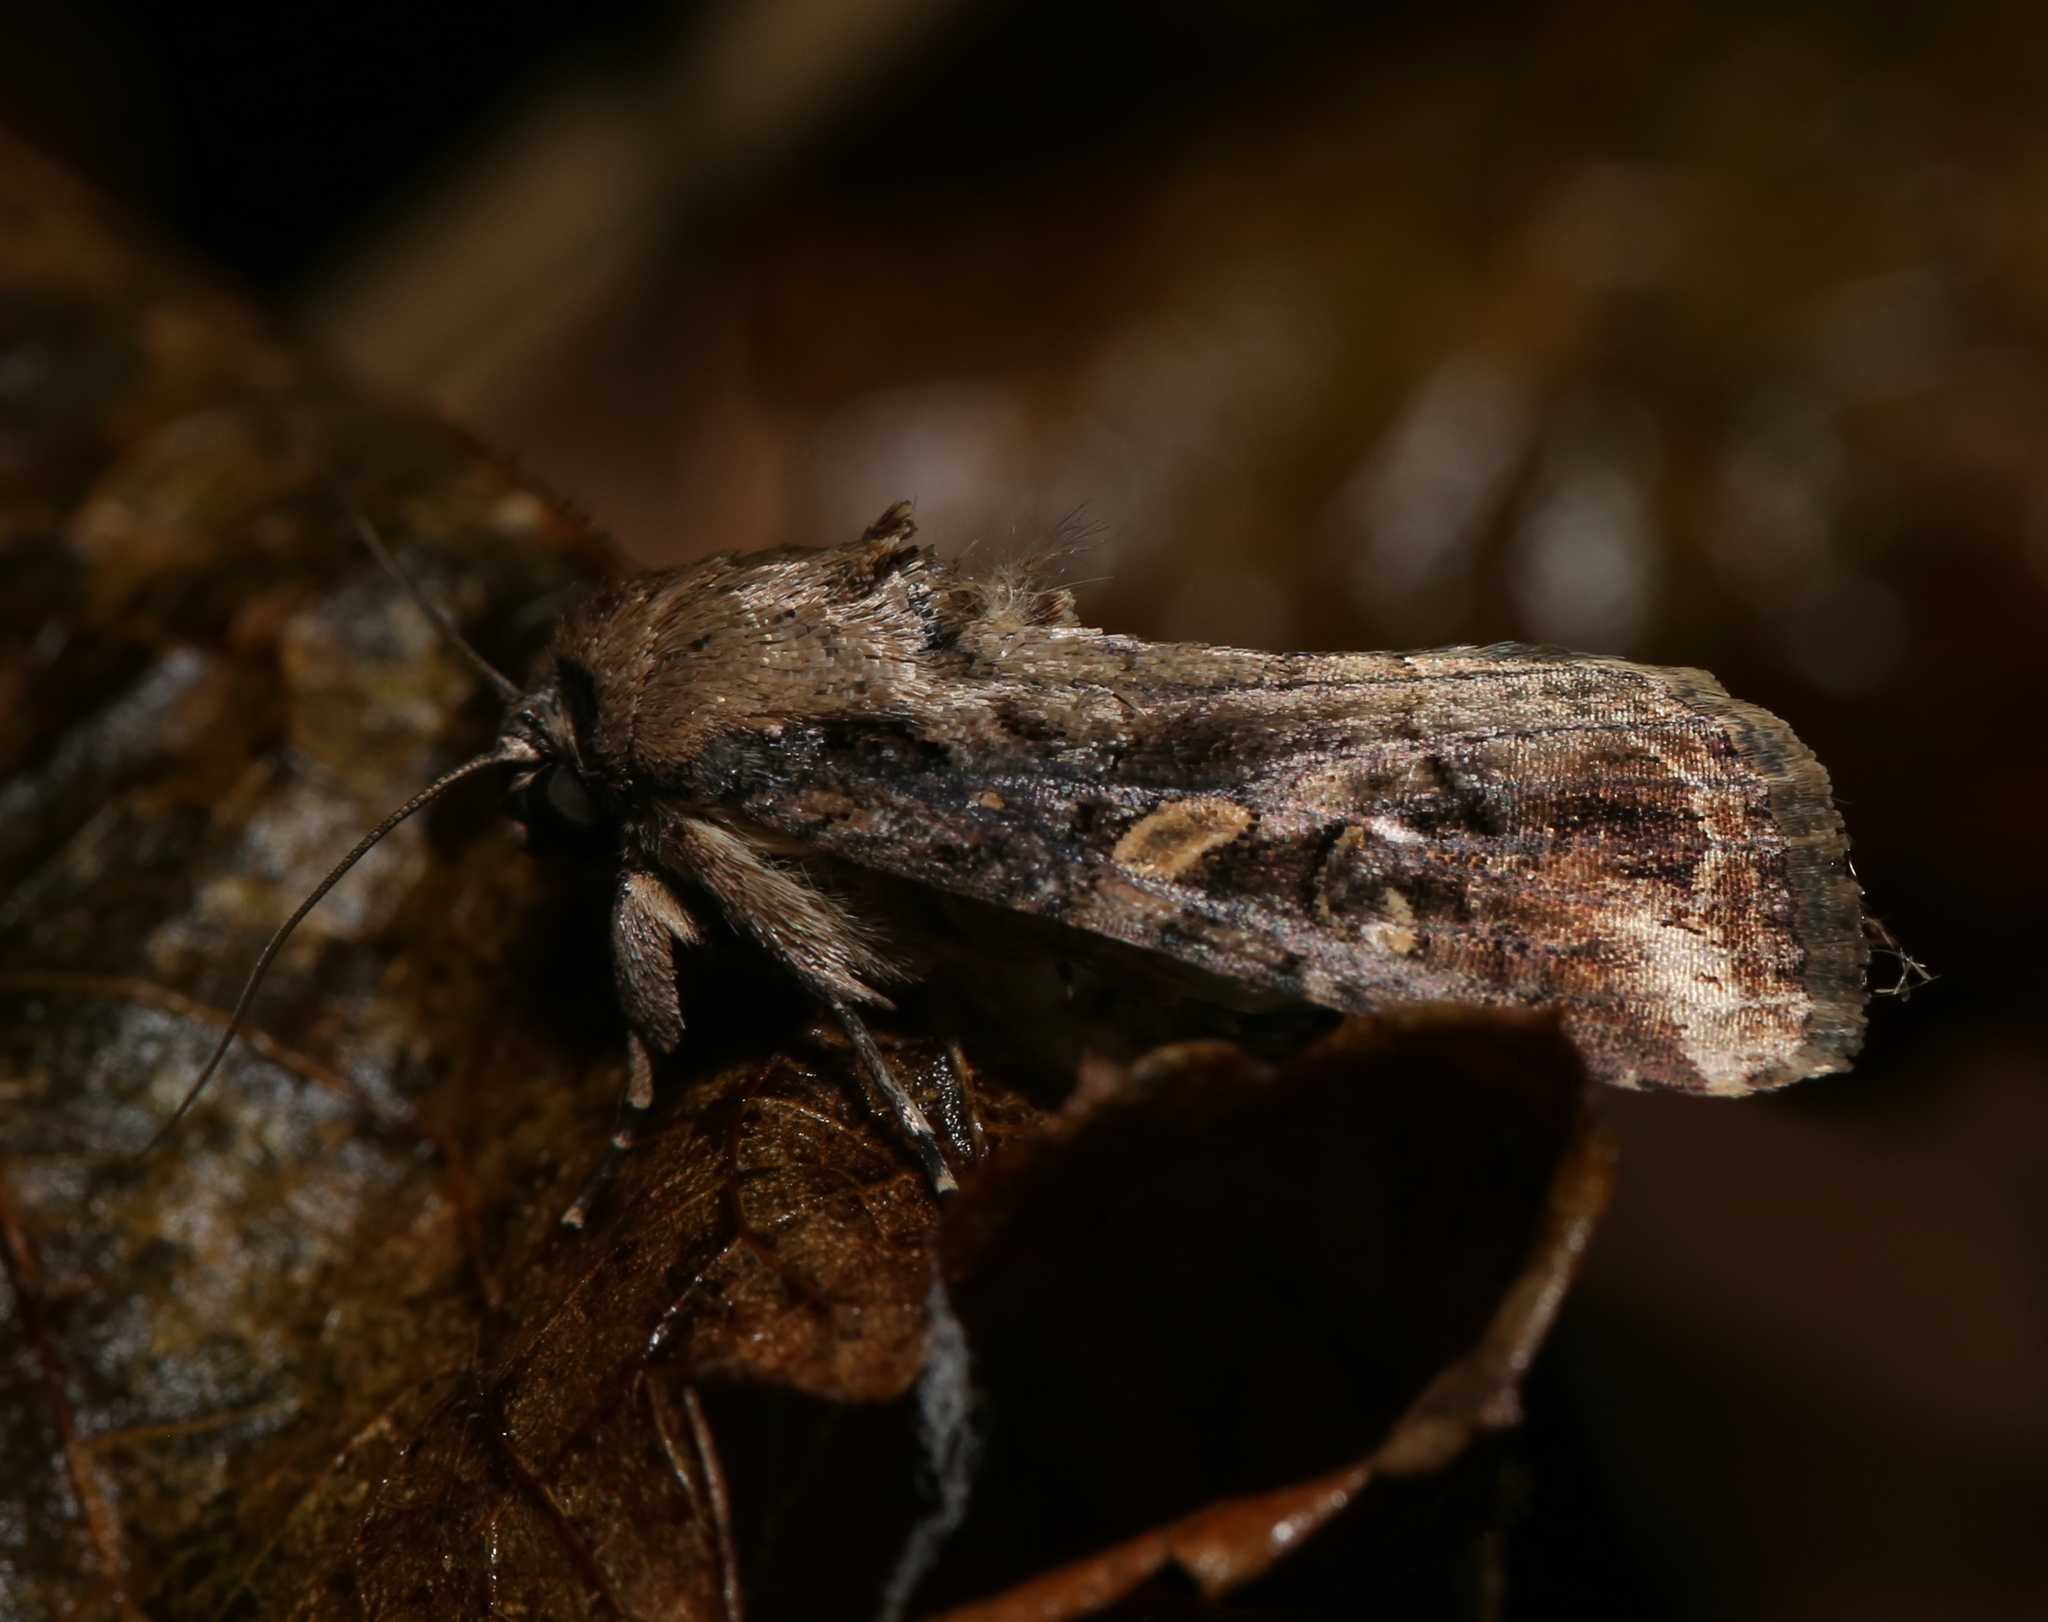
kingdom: Animalia
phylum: Arthropoda
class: Insecta
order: Lepidoptera
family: Noctuidae
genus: Spodoptera
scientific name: Spodoptera frugiperda
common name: Fall armyworm
